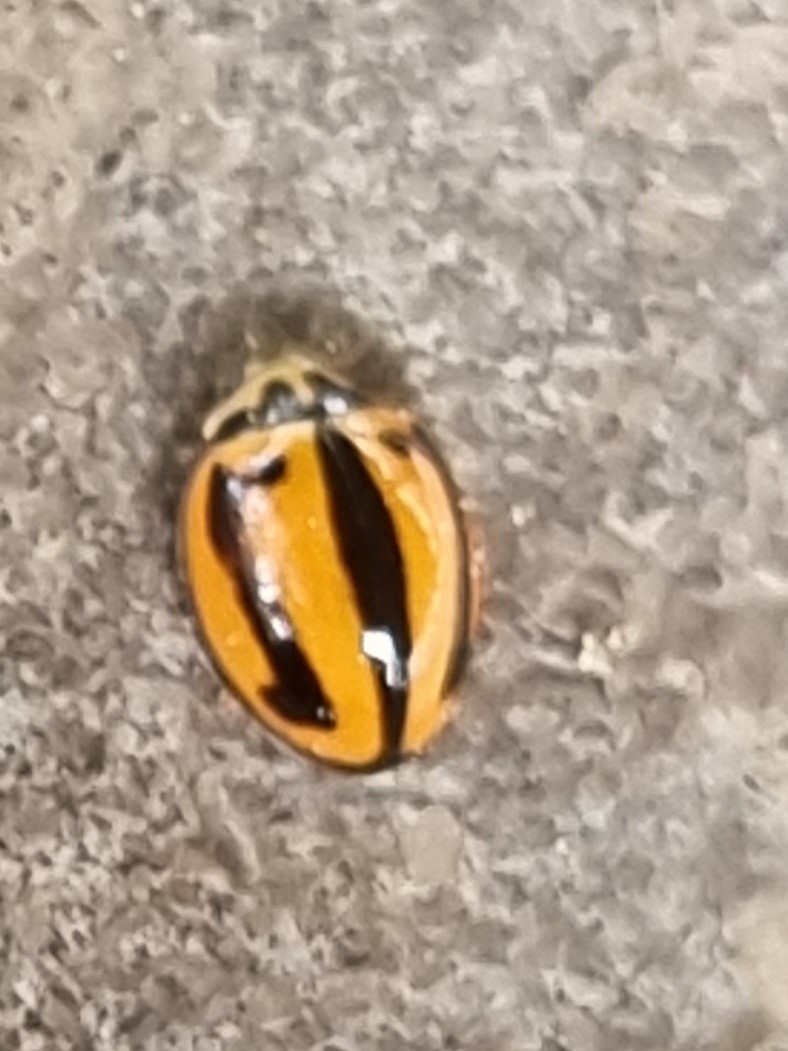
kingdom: Animalia
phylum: Arthropoda
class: Insecta
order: Coleoptera
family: Coccinellidae
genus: Micraspis
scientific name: Micraspis frenata
